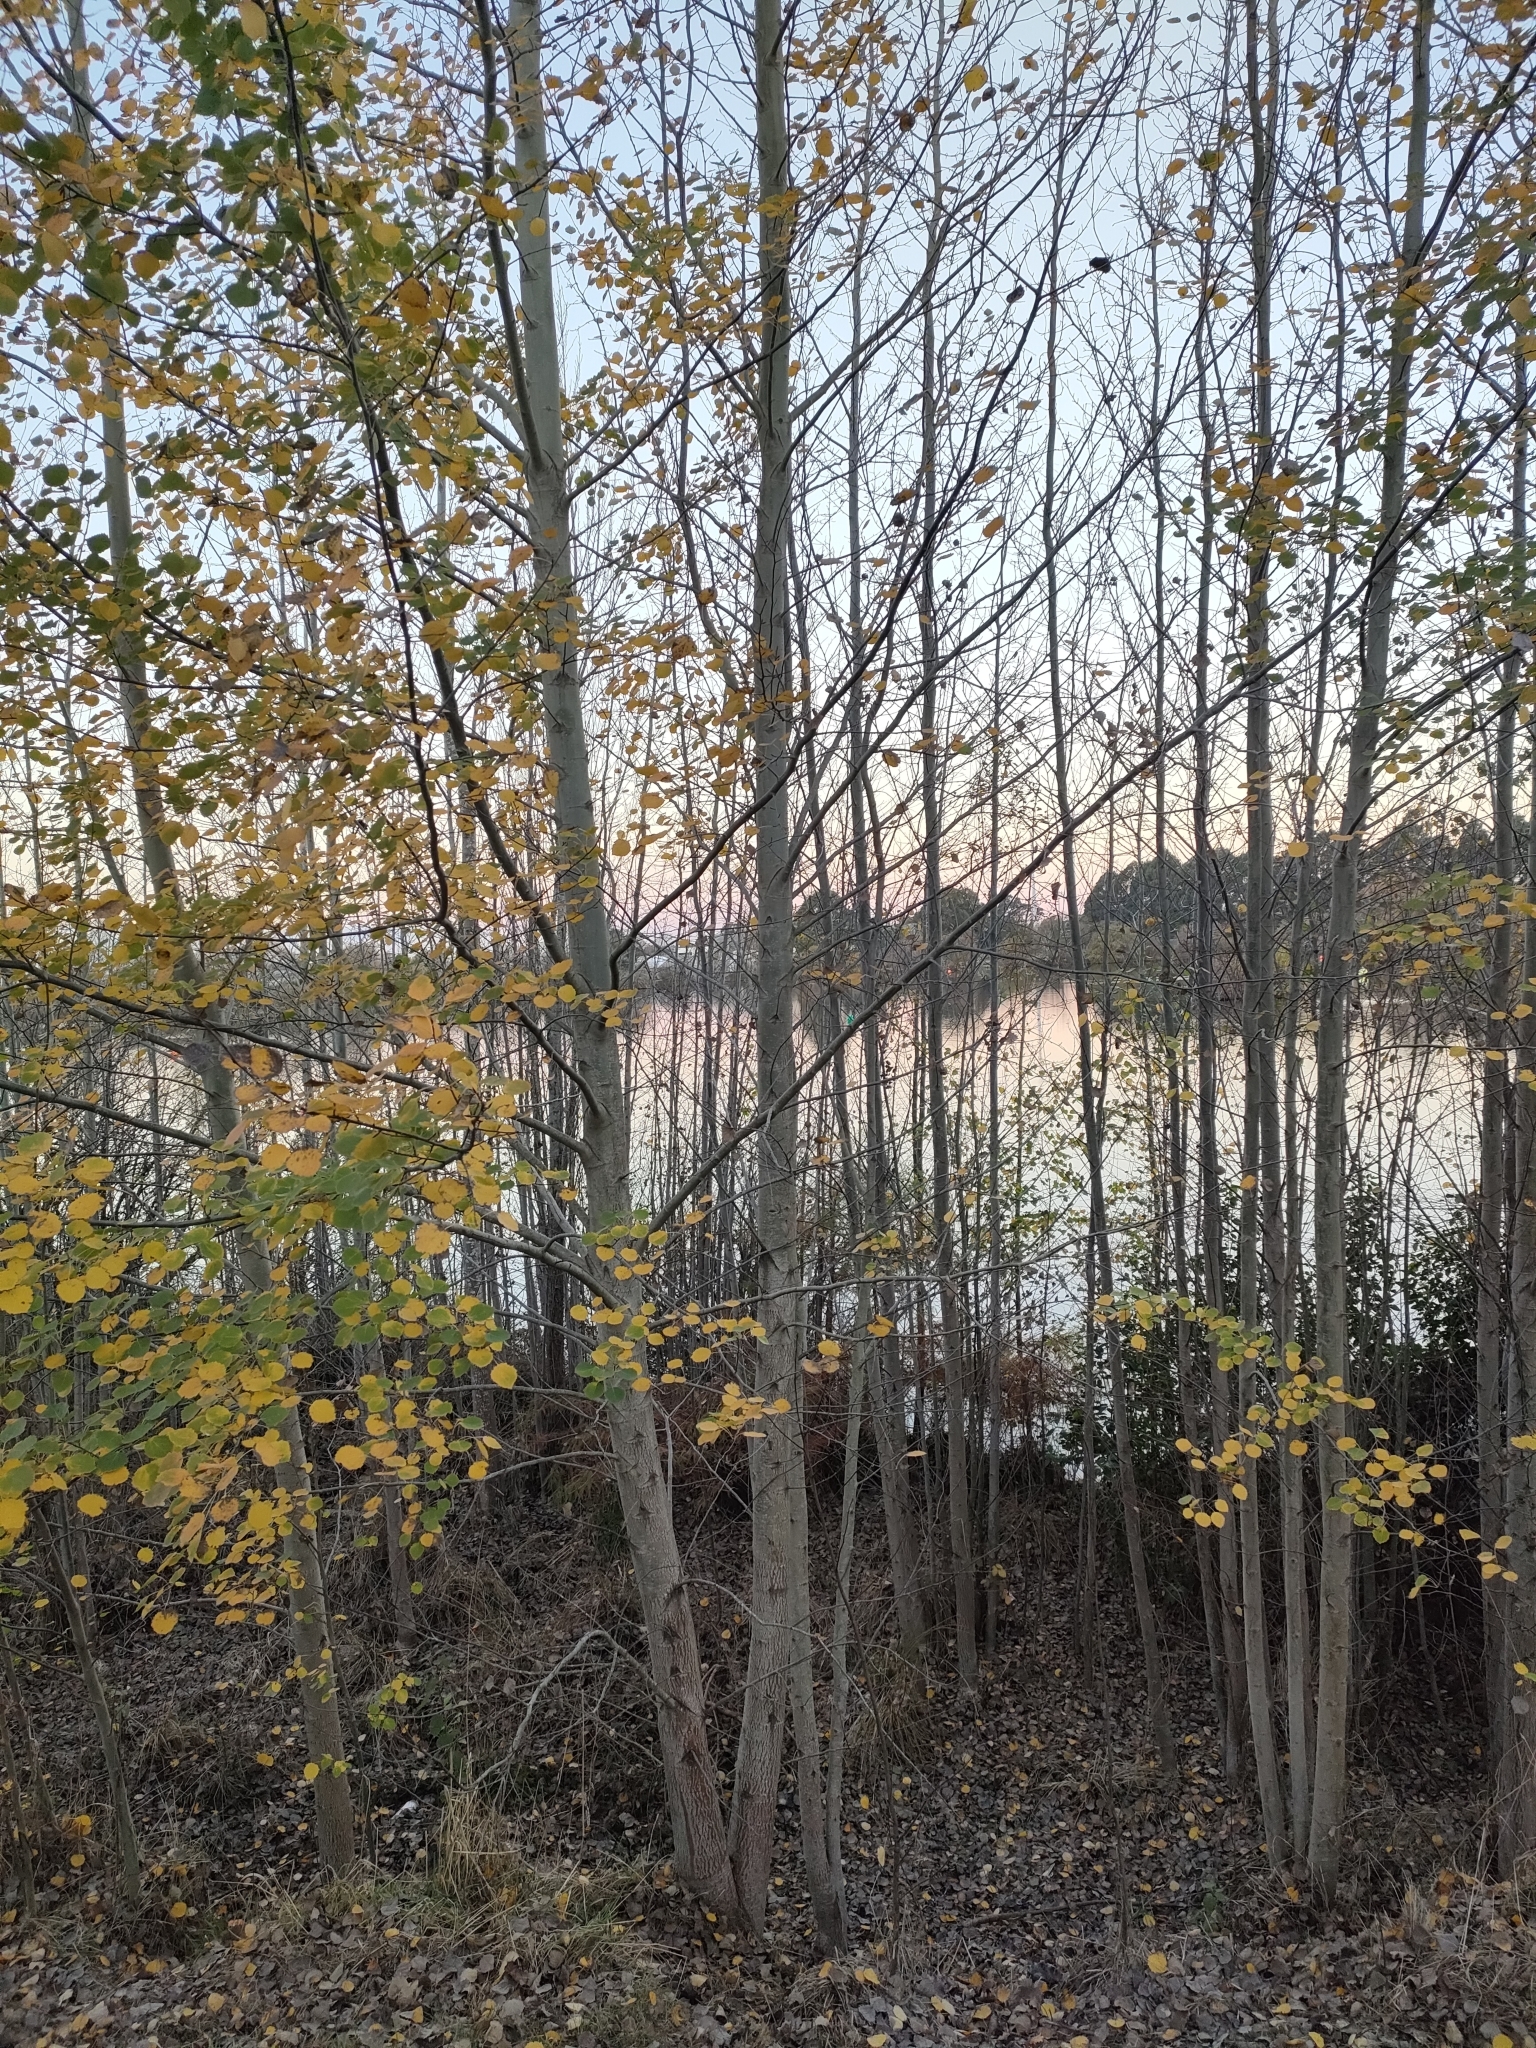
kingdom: Plantae
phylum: Tracheophyta
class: Magnoliopsida
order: Malpighiales
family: Salicaceae
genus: Populus
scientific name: Populus tremula
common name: European aspen
